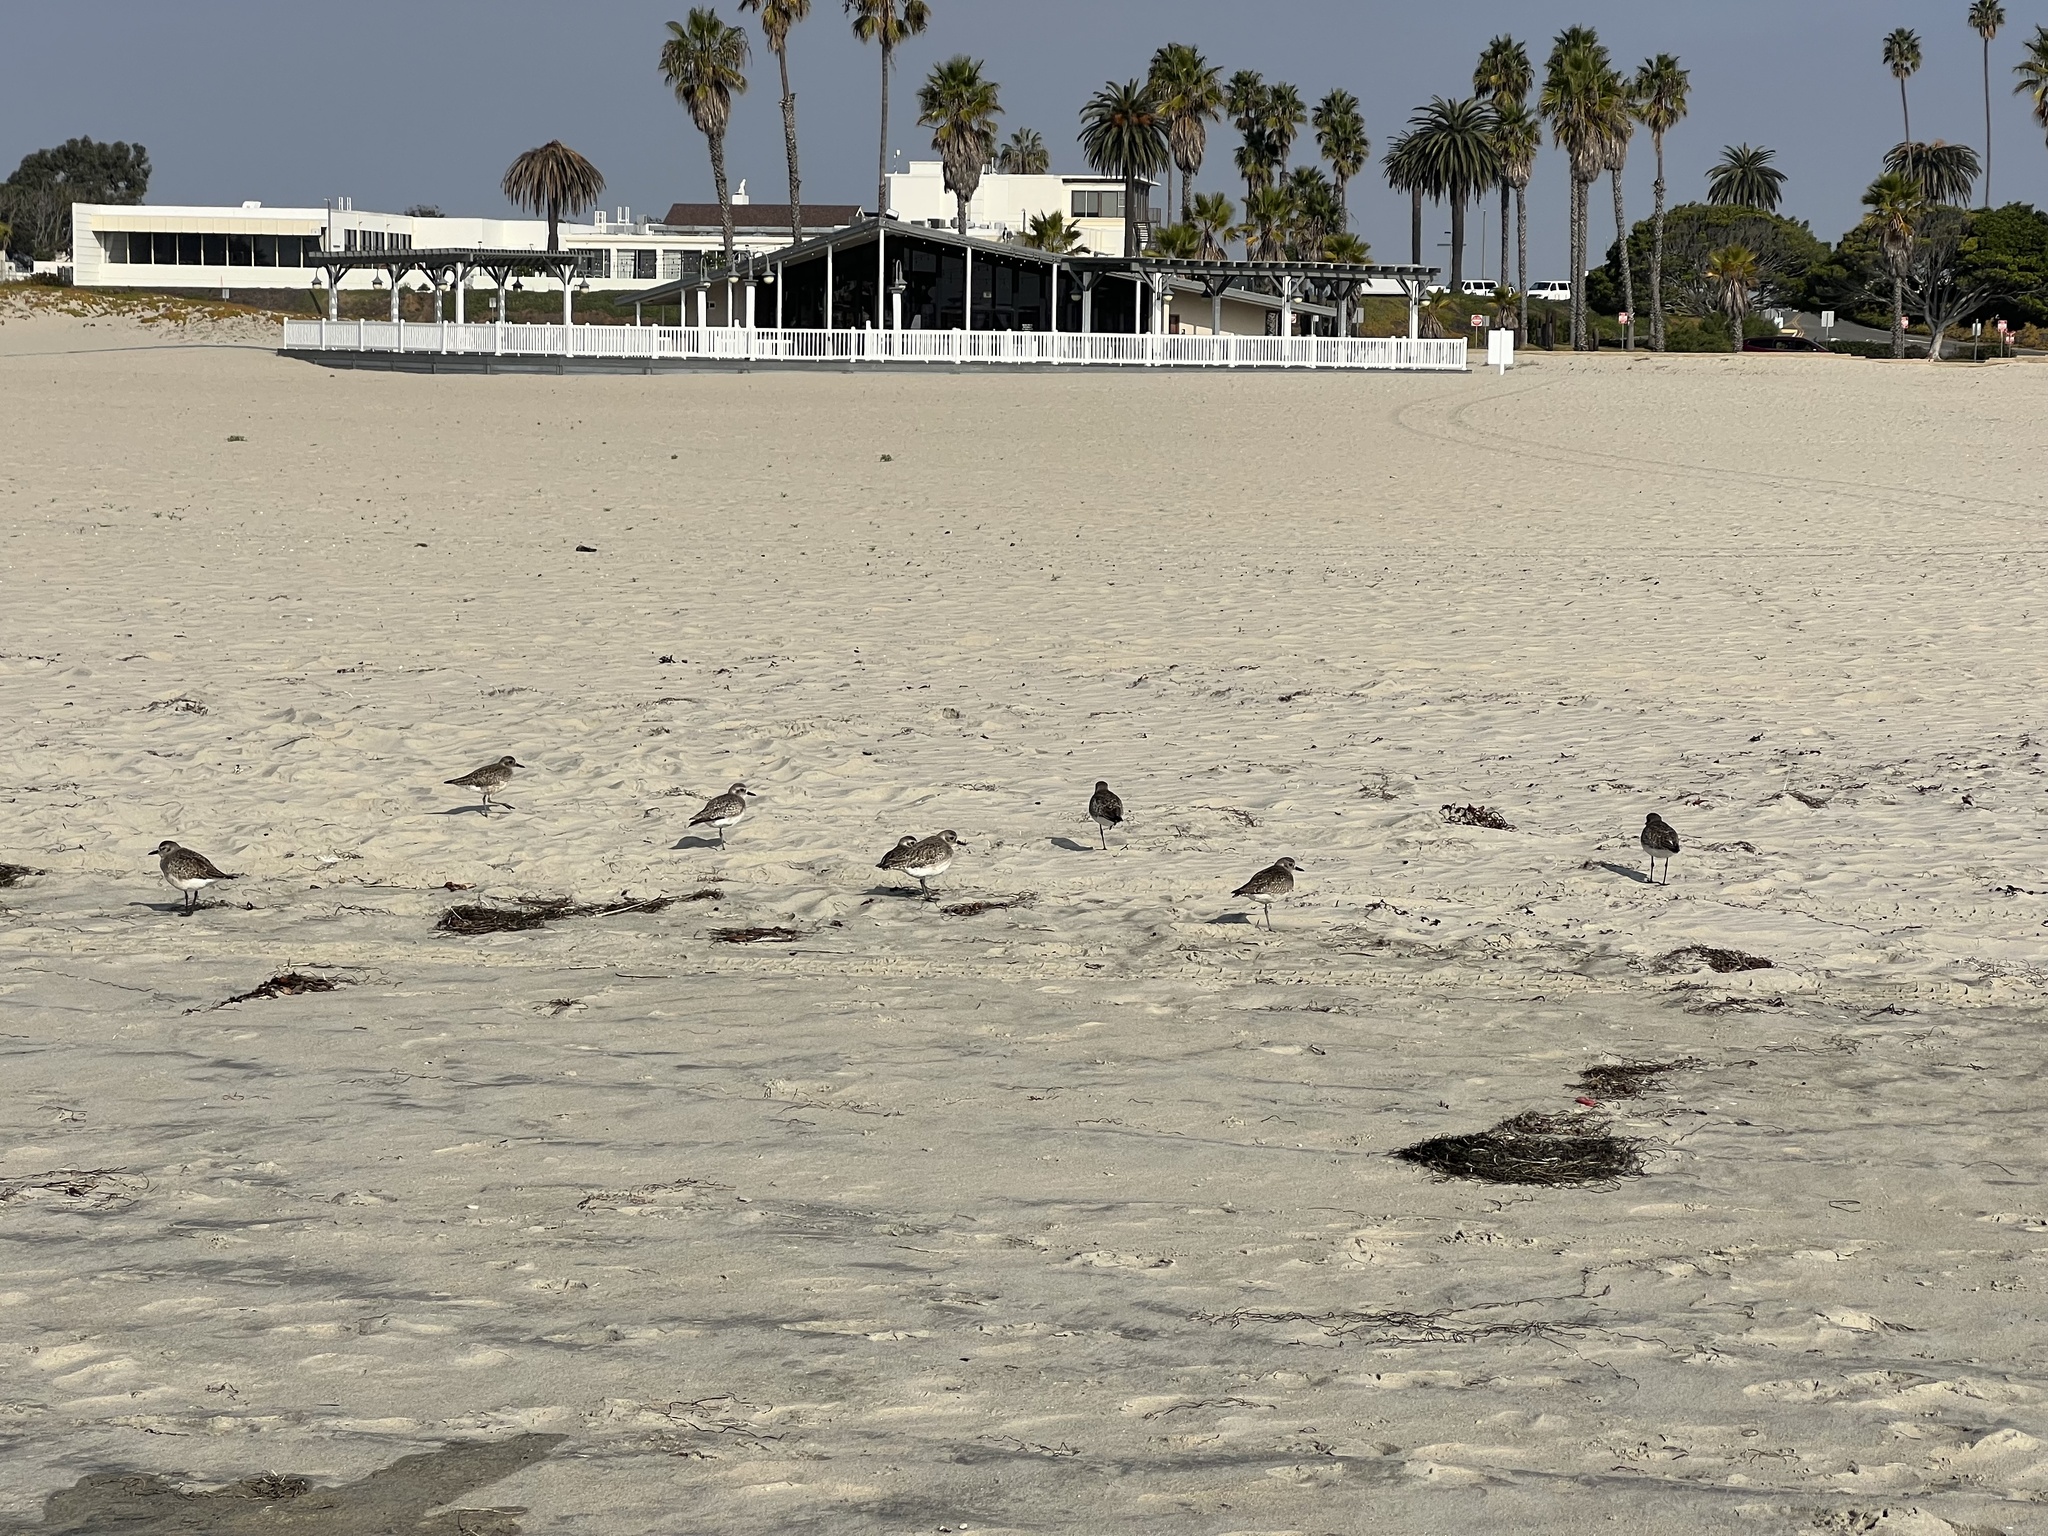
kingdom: Animalia
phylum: Chordata
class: Aves
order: Charadriiformes
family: Charadriidae
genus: Pluvialis
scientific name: Pluvialis squatarola
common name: Grey plover
